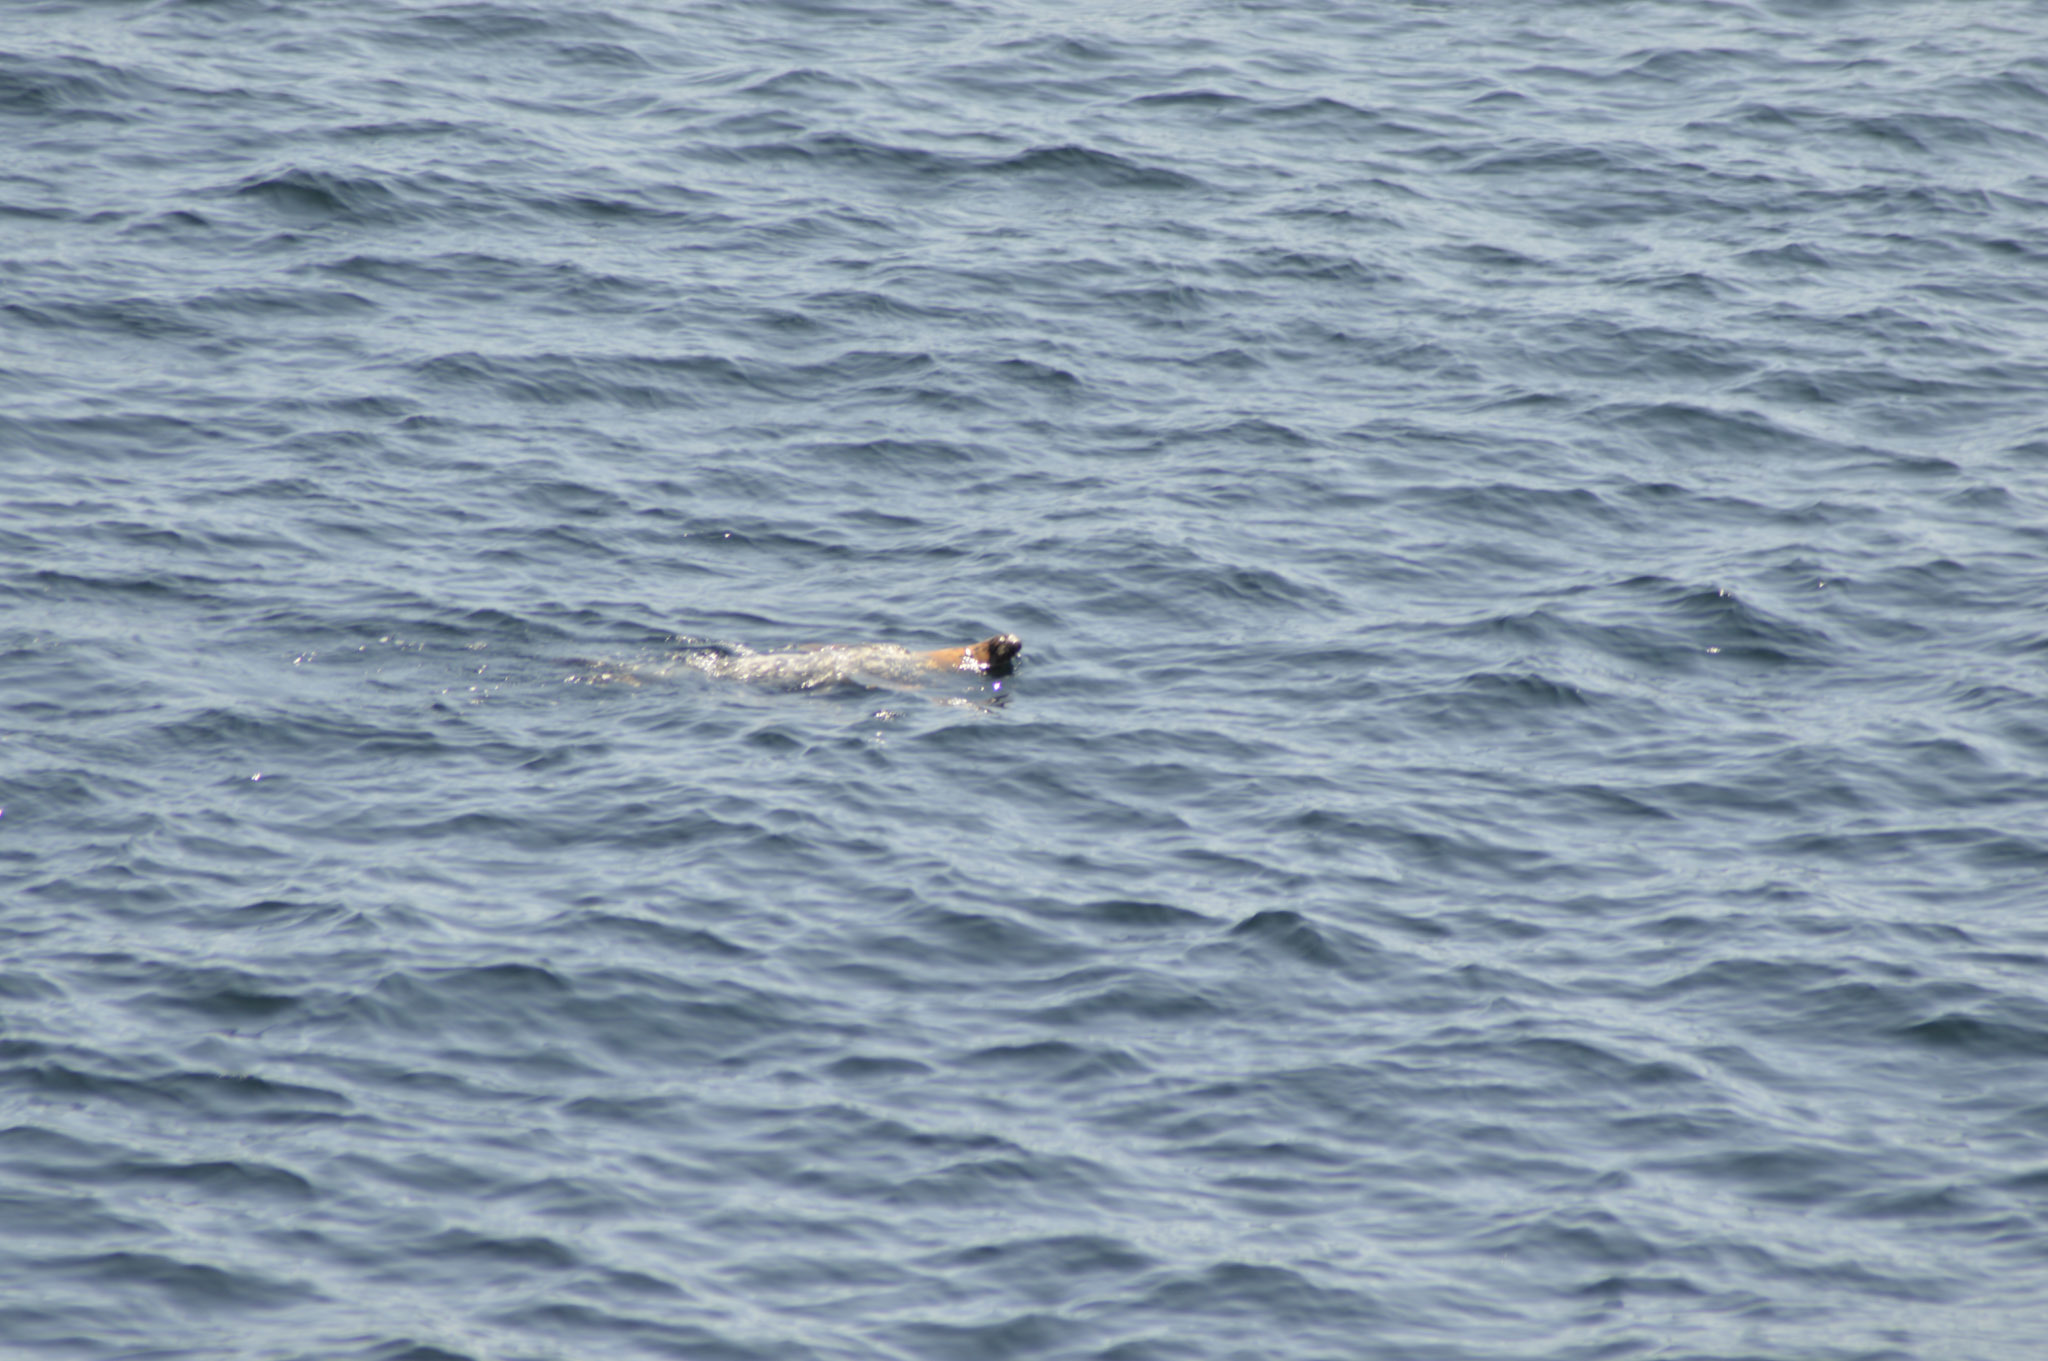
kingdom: Animalia
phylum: Chordata
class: Mammalia
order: Carnivora
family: Phocidae
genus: Halichoerus
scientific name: Halichoerus grypus
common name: Grey seal
